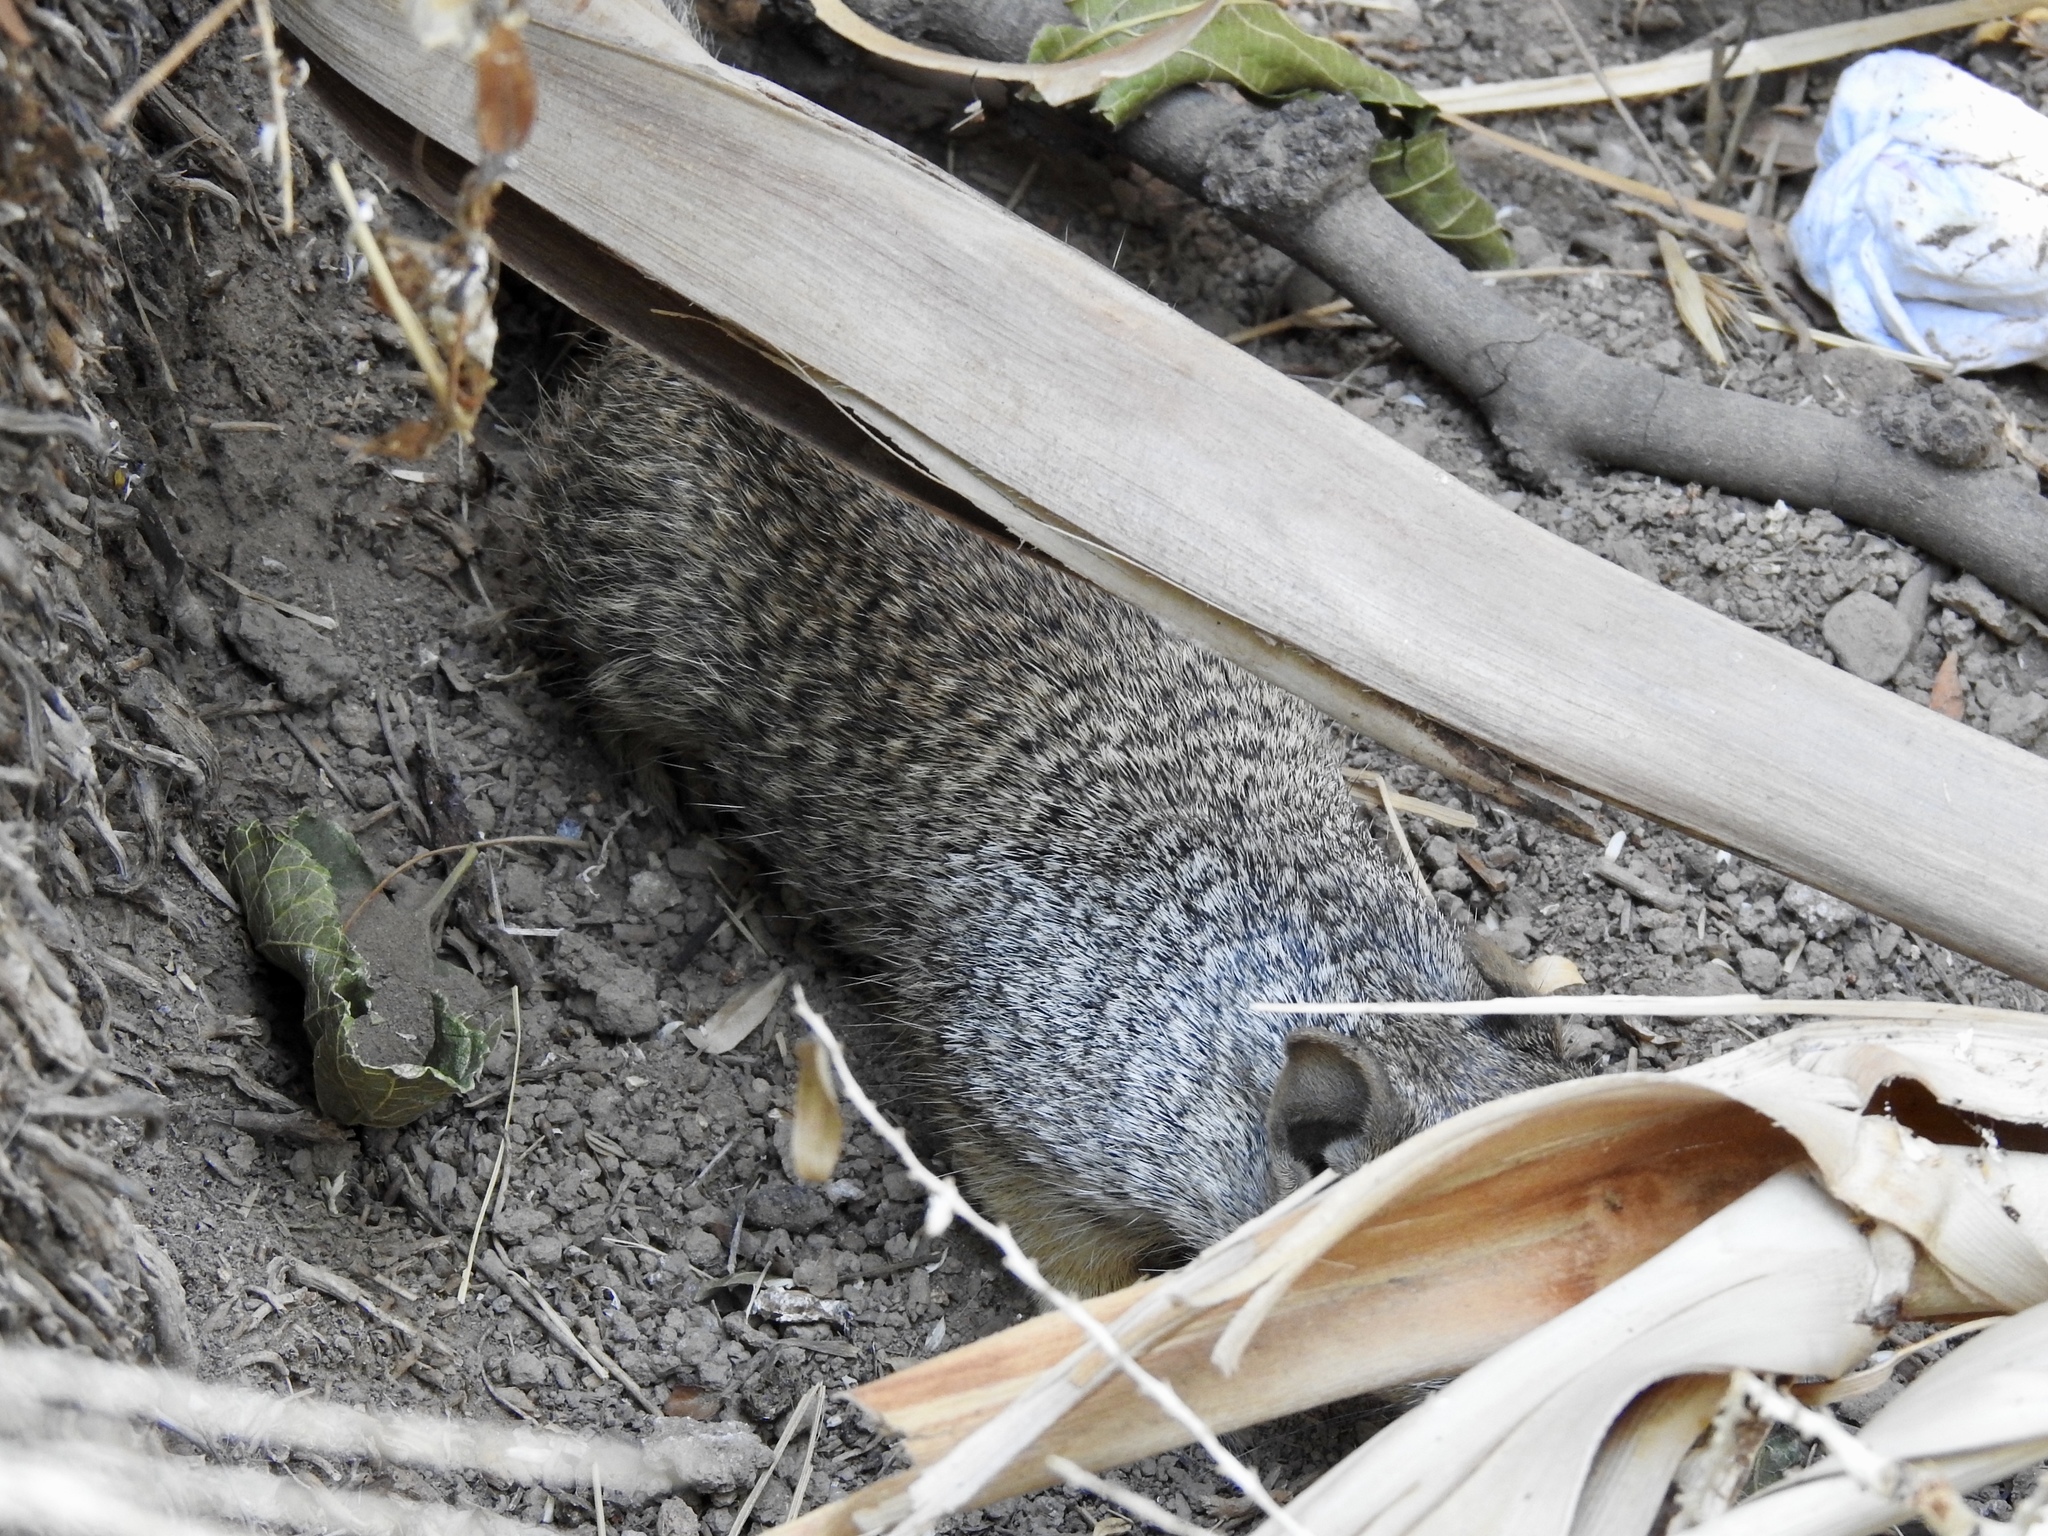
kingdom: Animalia
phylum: Chordata
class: Mammalia
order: Rodentia
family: Sciuridae
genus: Otospermophilus
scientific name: Otospermophilus variegatus
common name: Rock squirrel
